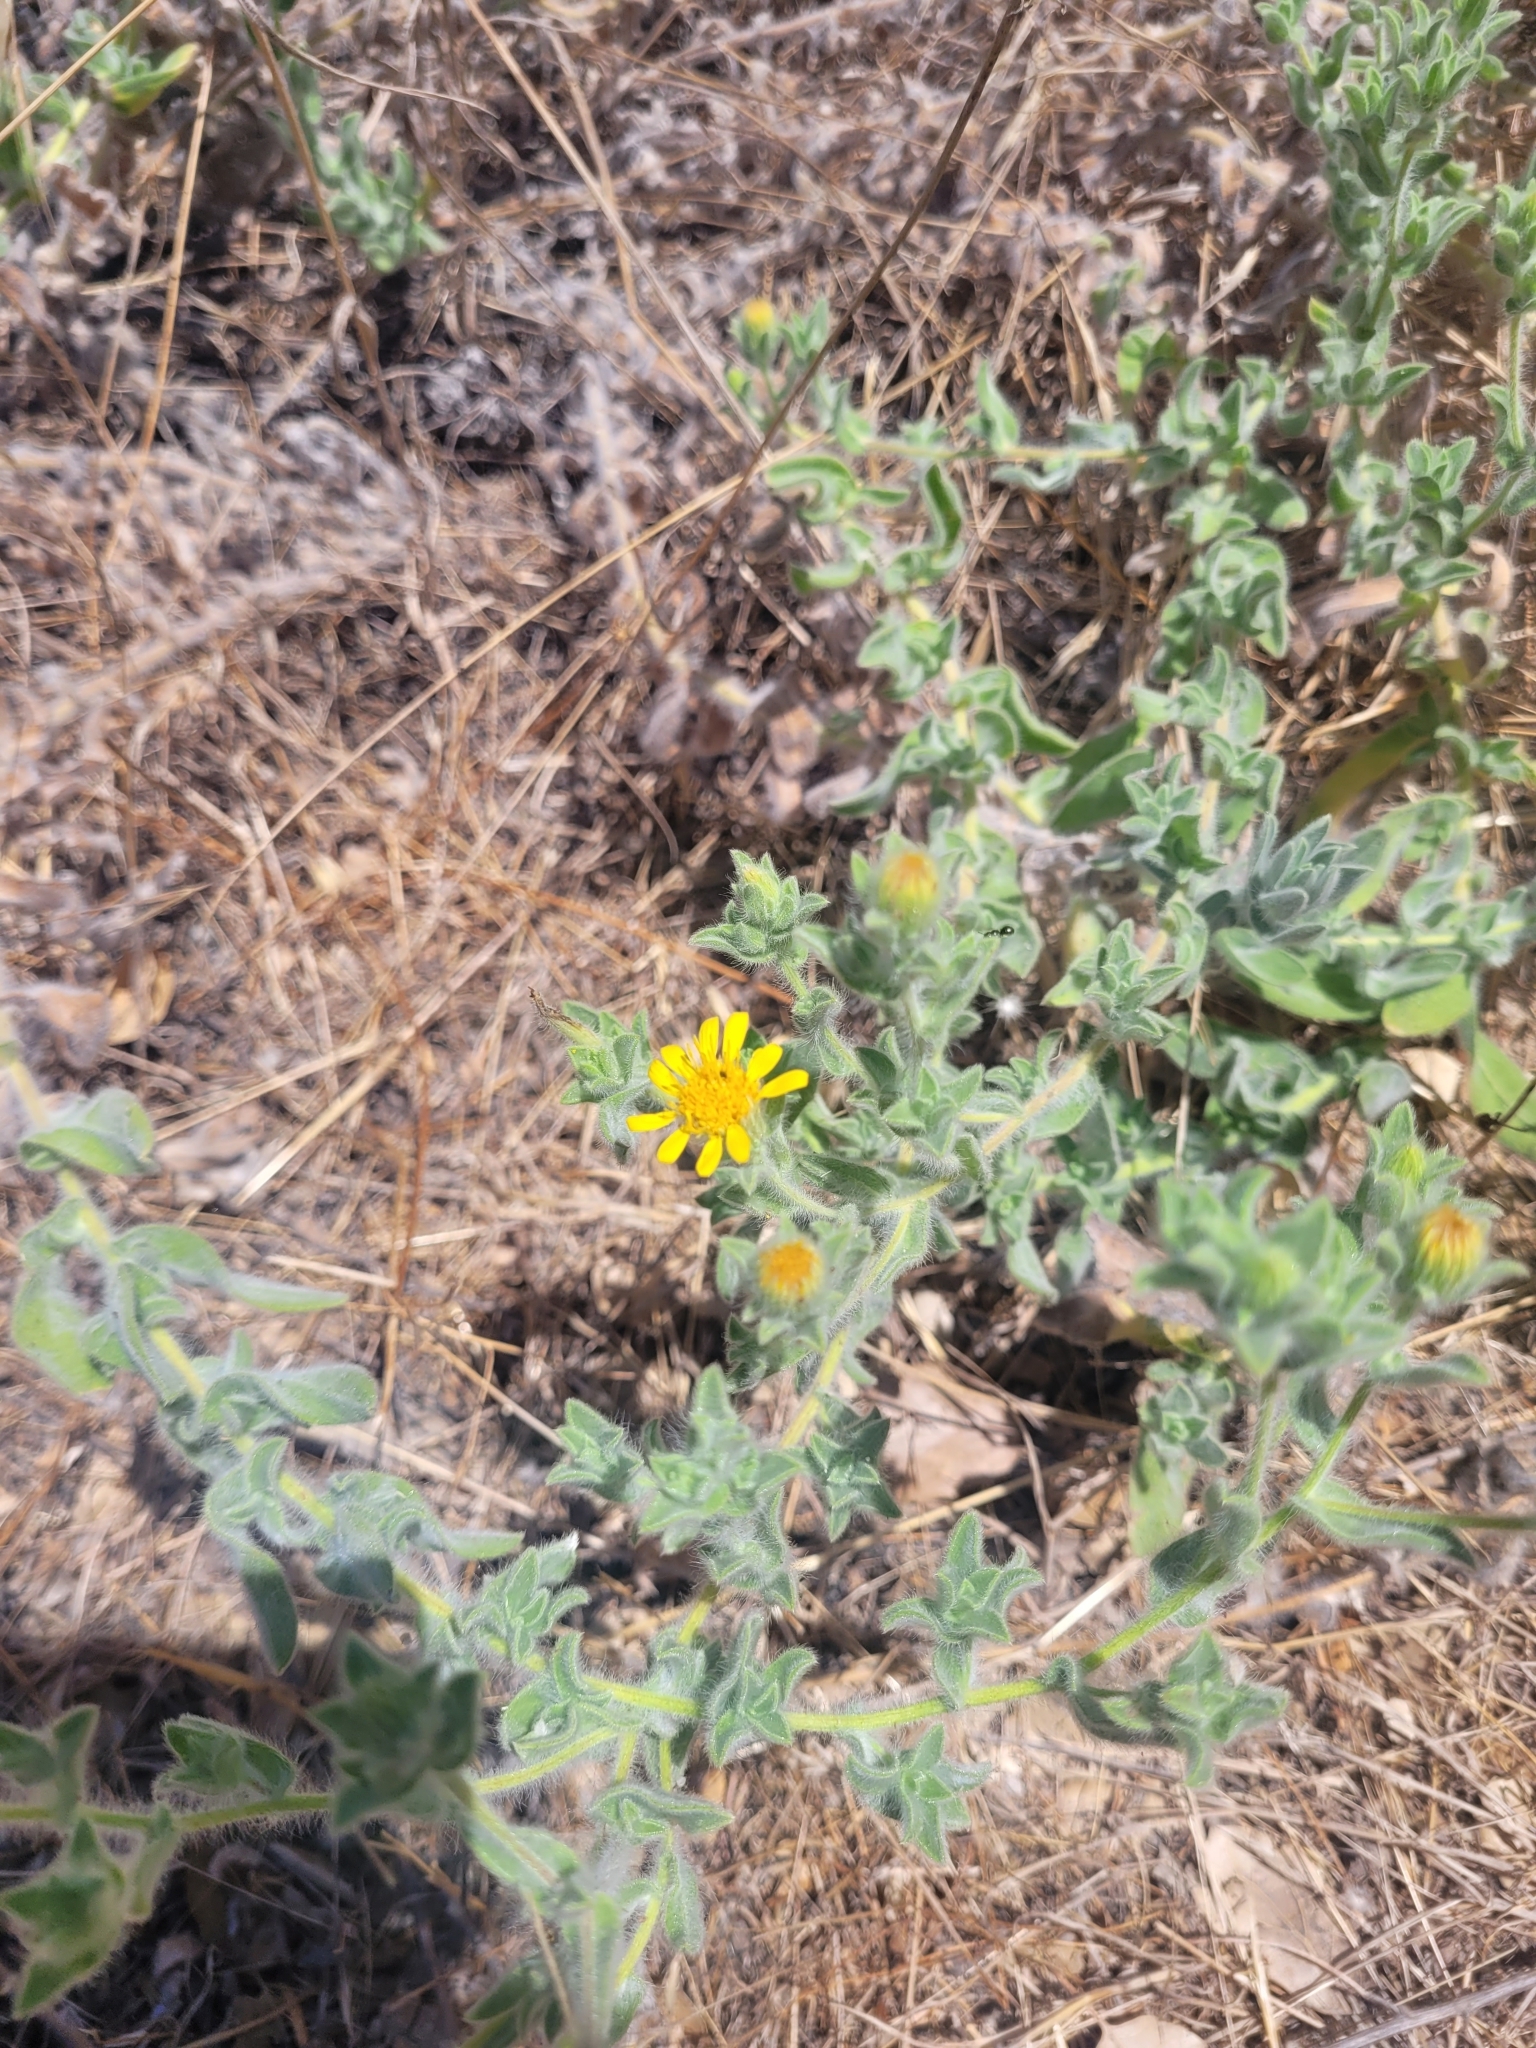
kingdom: Plantae
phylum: Tracheophyta
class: Magnoliopsida
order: Asterales
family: Asteraceae
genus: Heterotheca
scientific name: Heterotheca sessiliflora
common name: Sessile-flower golden-aster
